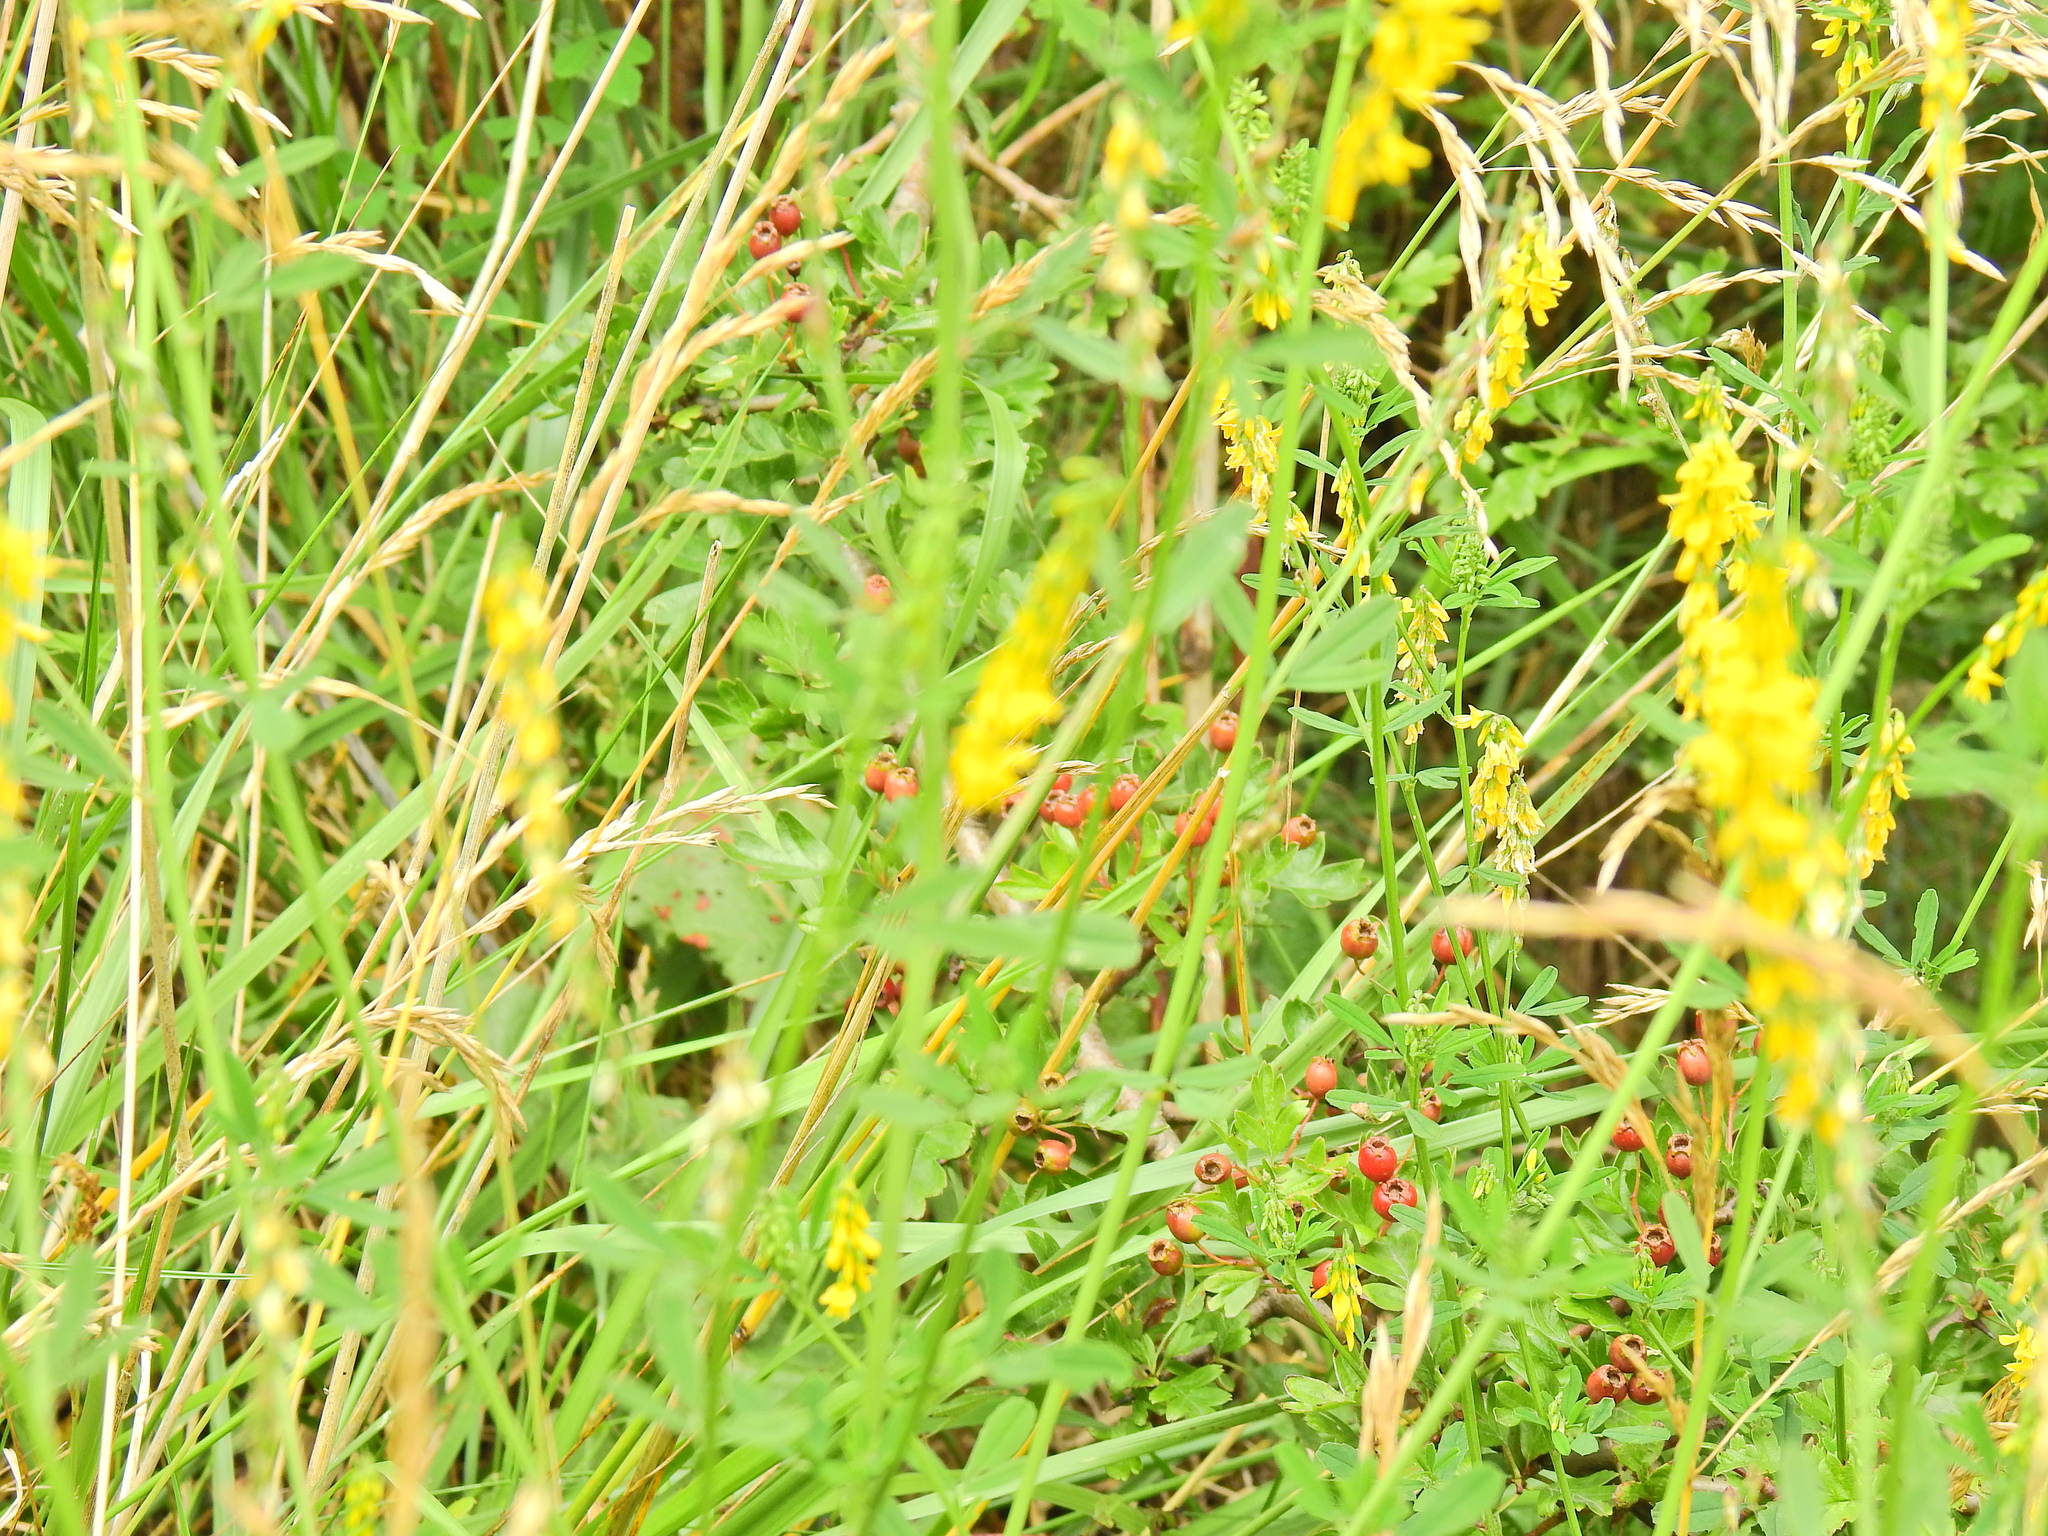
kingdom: Plantae
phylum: Tracheophyta
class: Magnoliopsida
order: Fabales
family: Fabaceae
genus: Melilotus
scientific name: Melilotus officinalis
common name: Sweetclover
